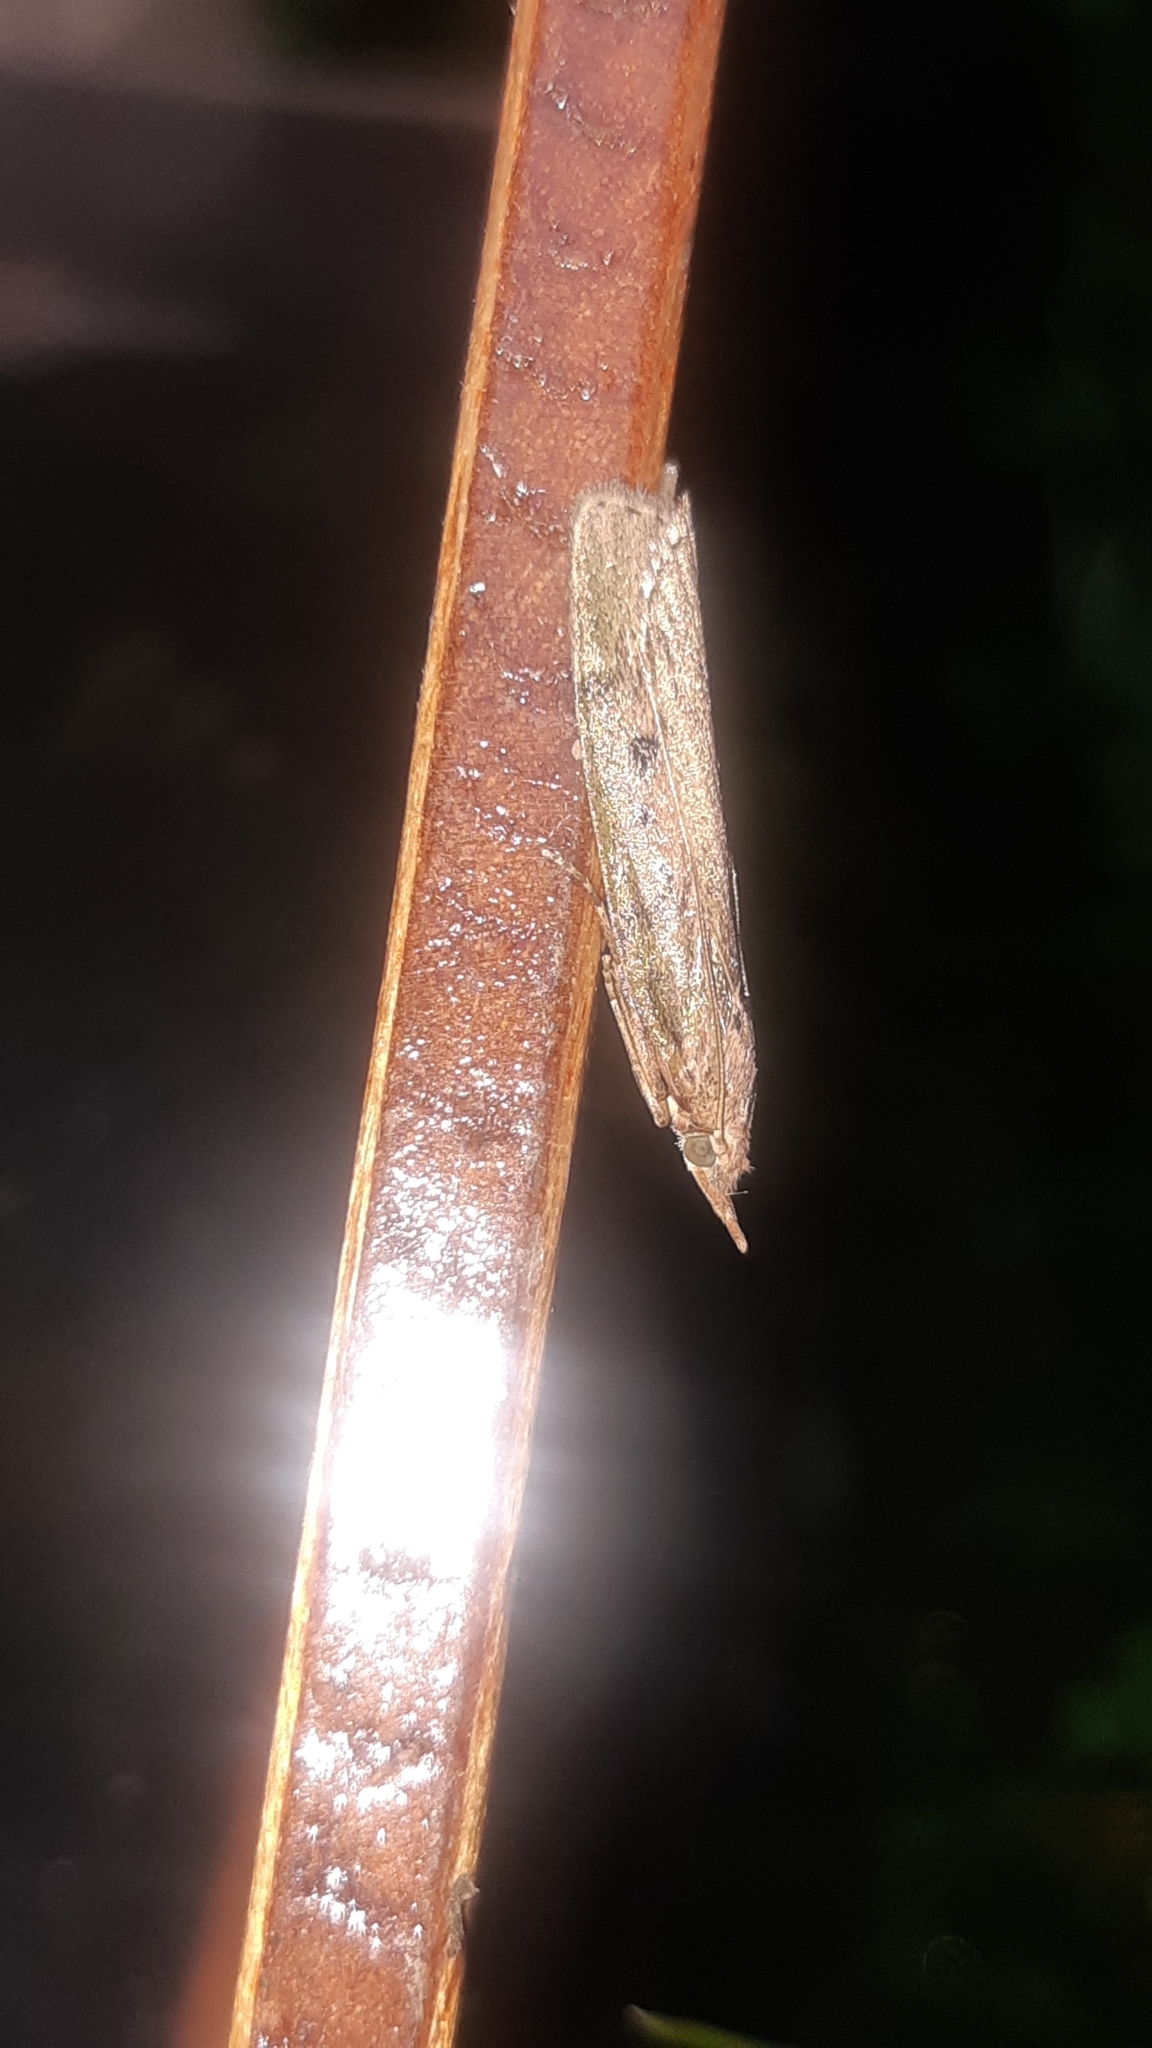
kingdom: Animalia
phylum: Arthropoda
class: Insecta
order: Lepidoptera
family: Pyralidae
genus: Aphomia
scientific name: Aphomia sociella
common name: Bee moth
